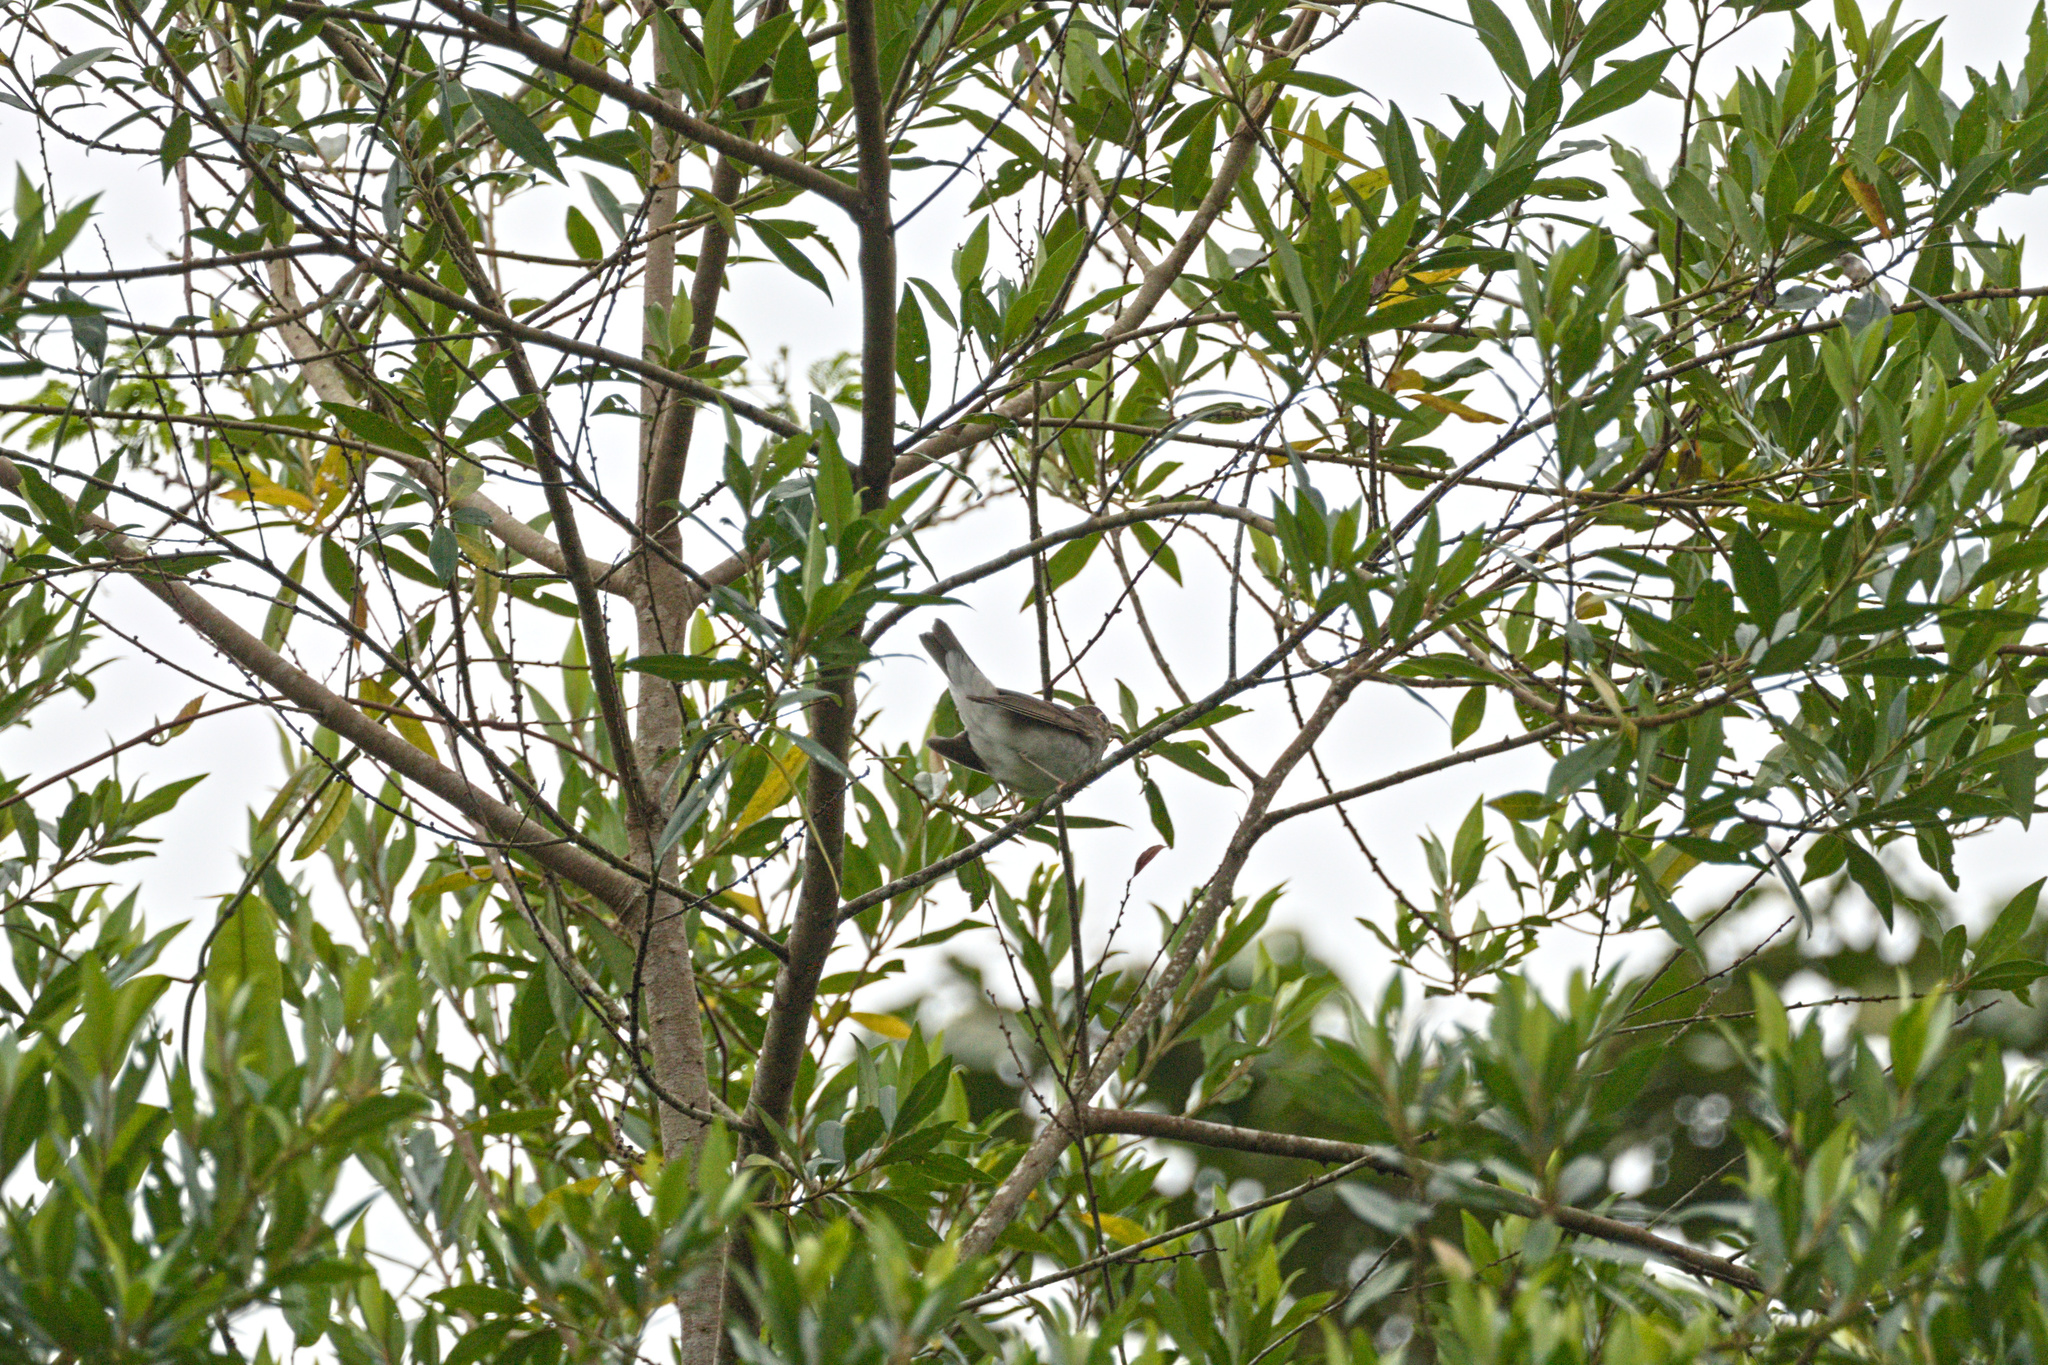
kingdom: Animalia
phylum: Chordata
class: Aves
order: Passeriformes
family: Turdidae
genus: Catharus
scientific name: Catharus ustulatus
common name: Swainson's thrush
